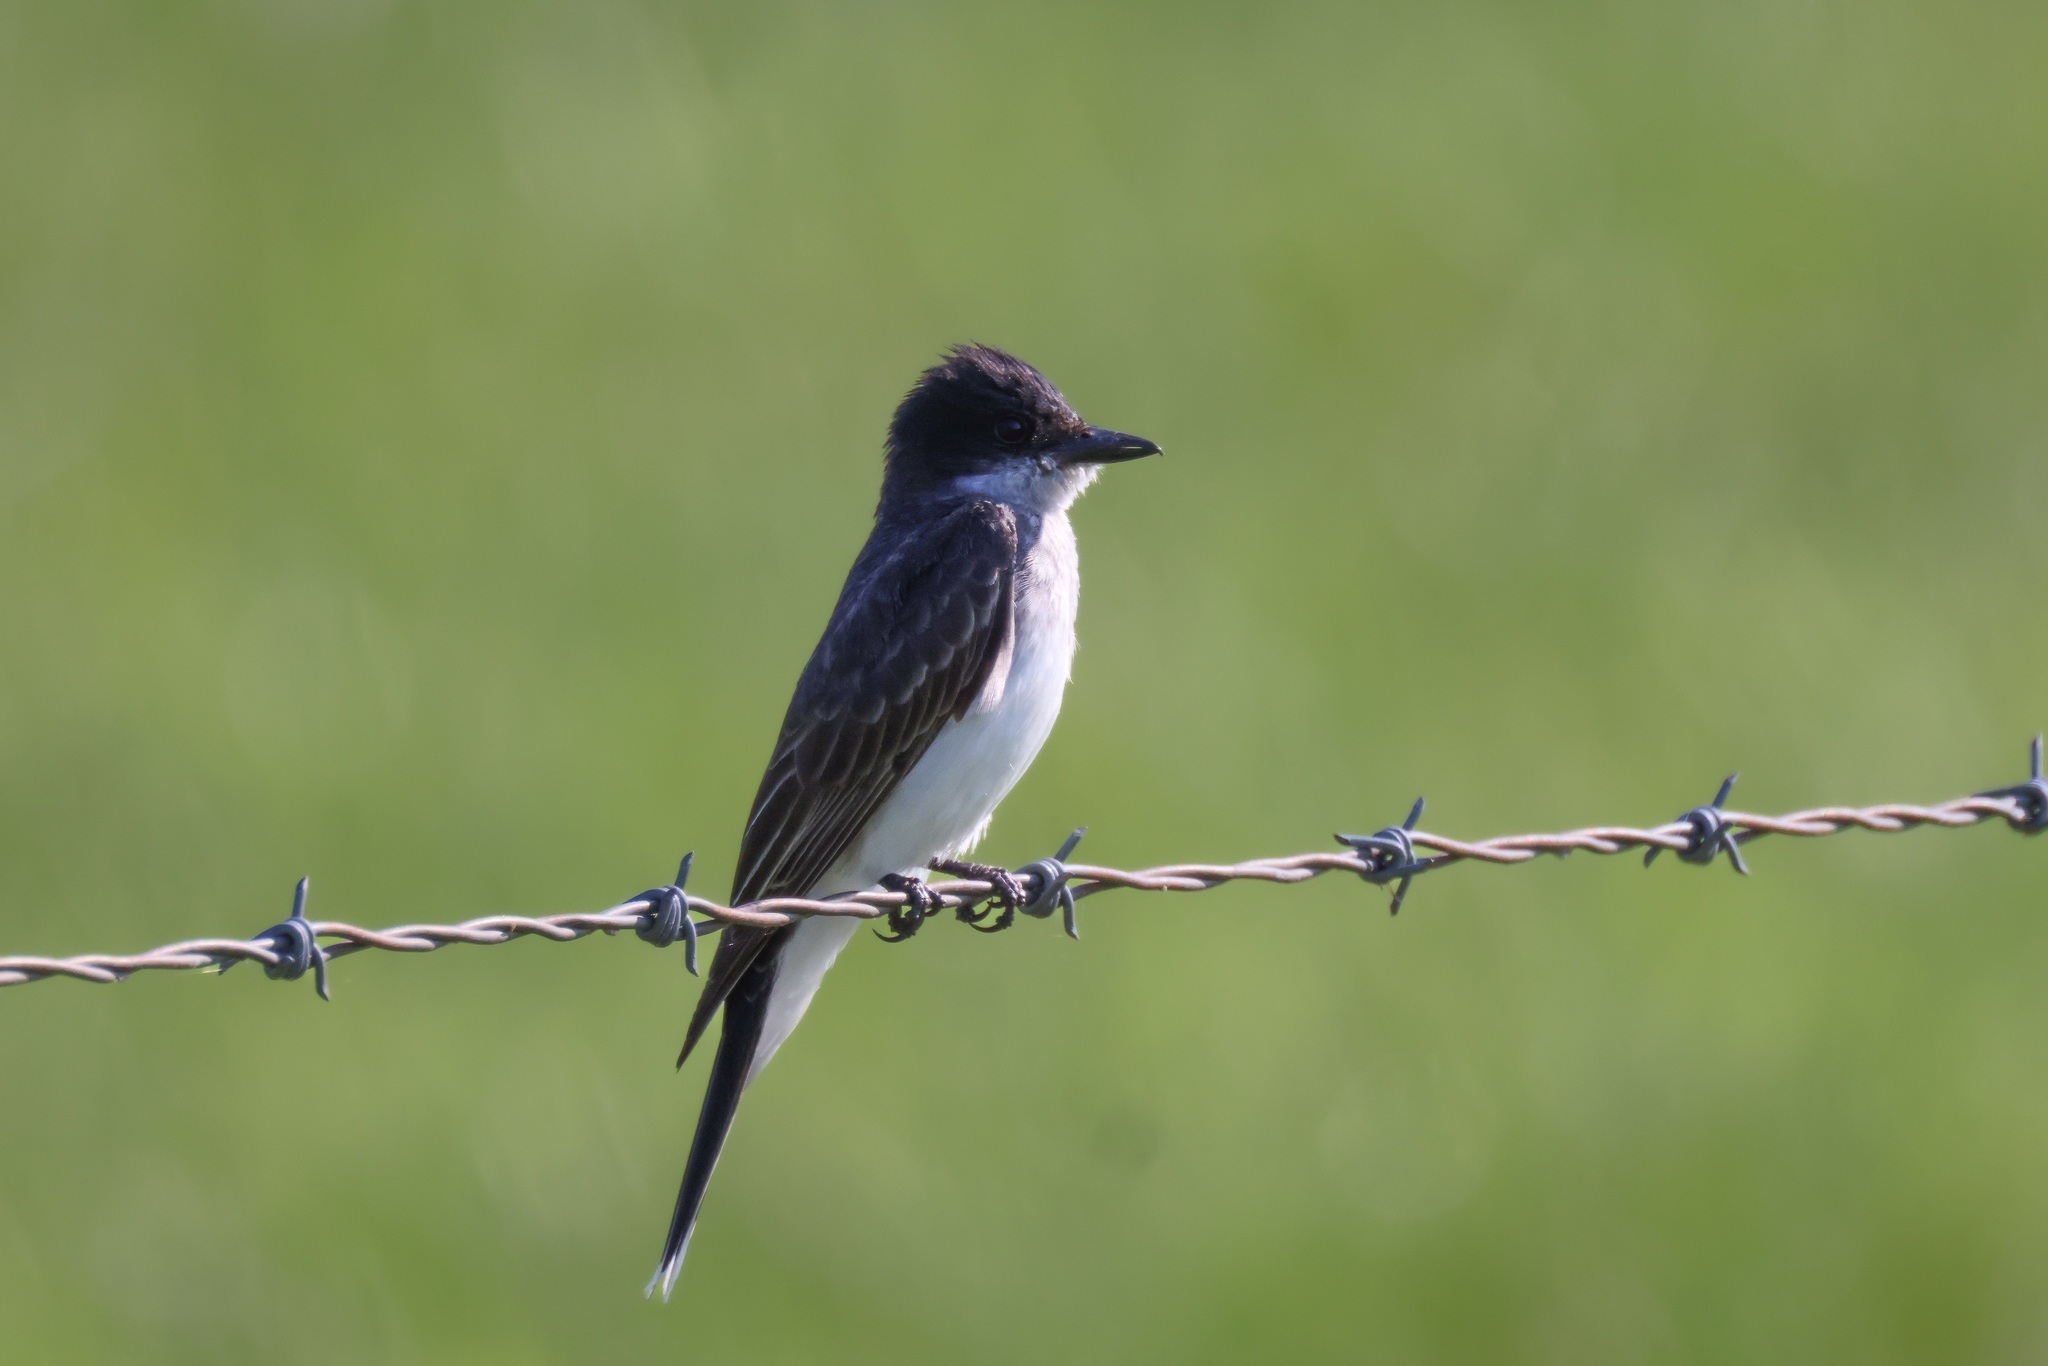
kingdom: Animalia
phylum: Chordata
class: Aves
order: Passeriformes
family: Tyrannidae
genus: Tyrannus
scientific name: Tyrannus tyrannus
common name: Eastern kingbird
